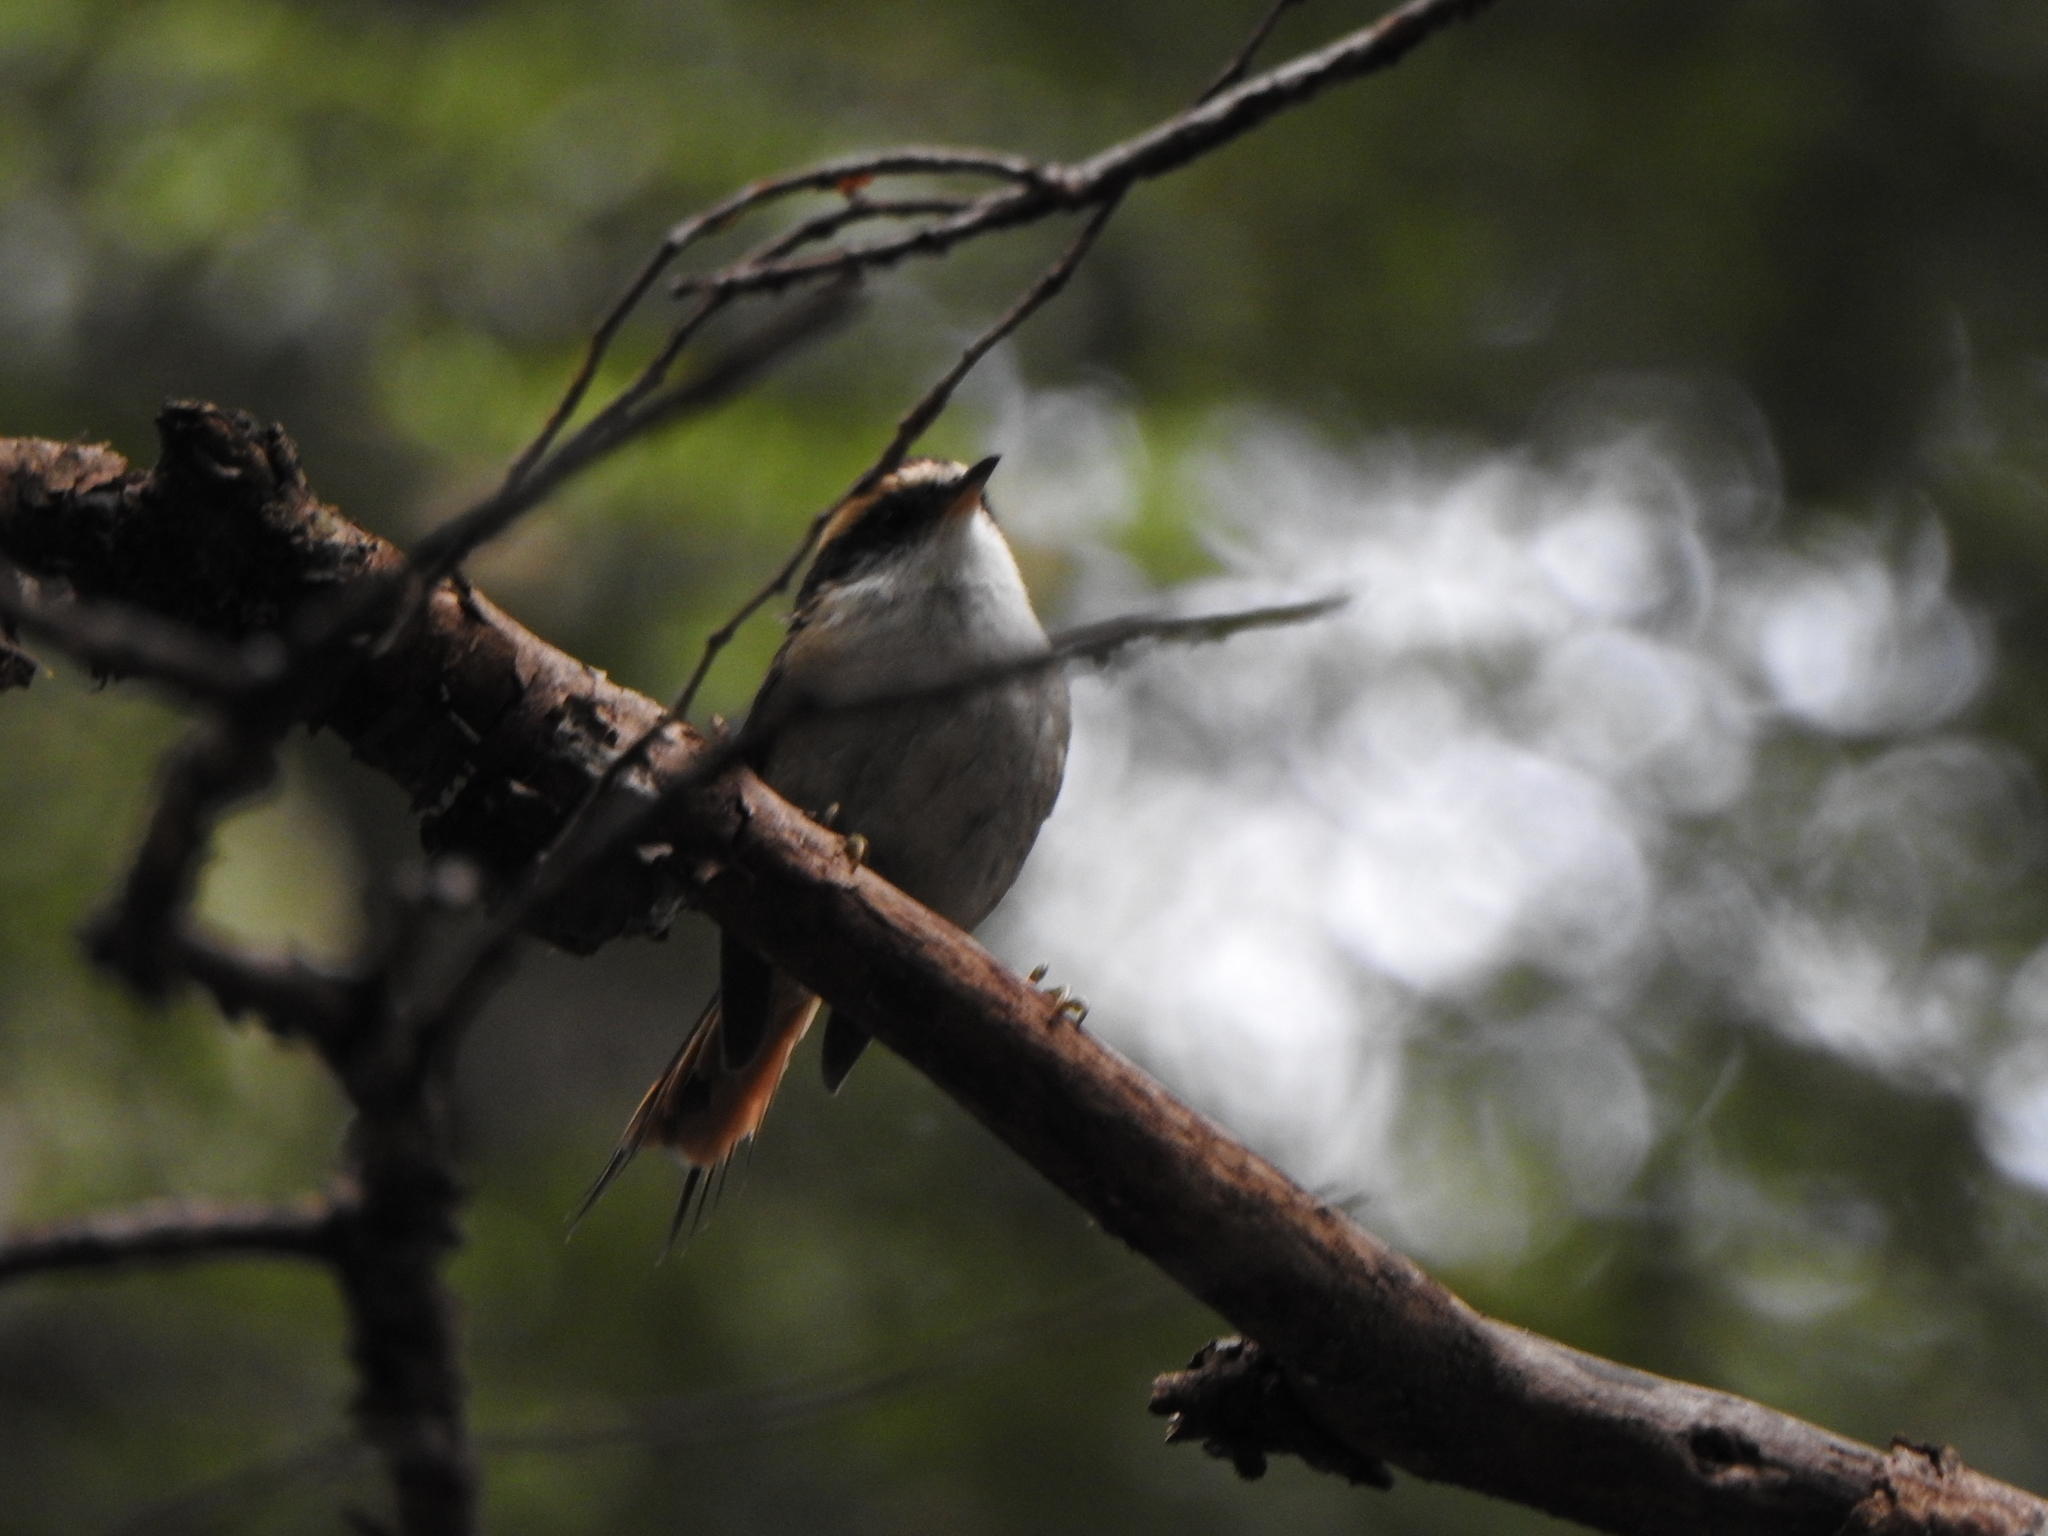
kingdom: Animalia
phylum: Chordata
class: Aves
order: Passeriformes
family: Furnariidae
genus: Aphrastura
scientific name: Aphrastura spinicauda
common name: Thorn-tailed rayadito
